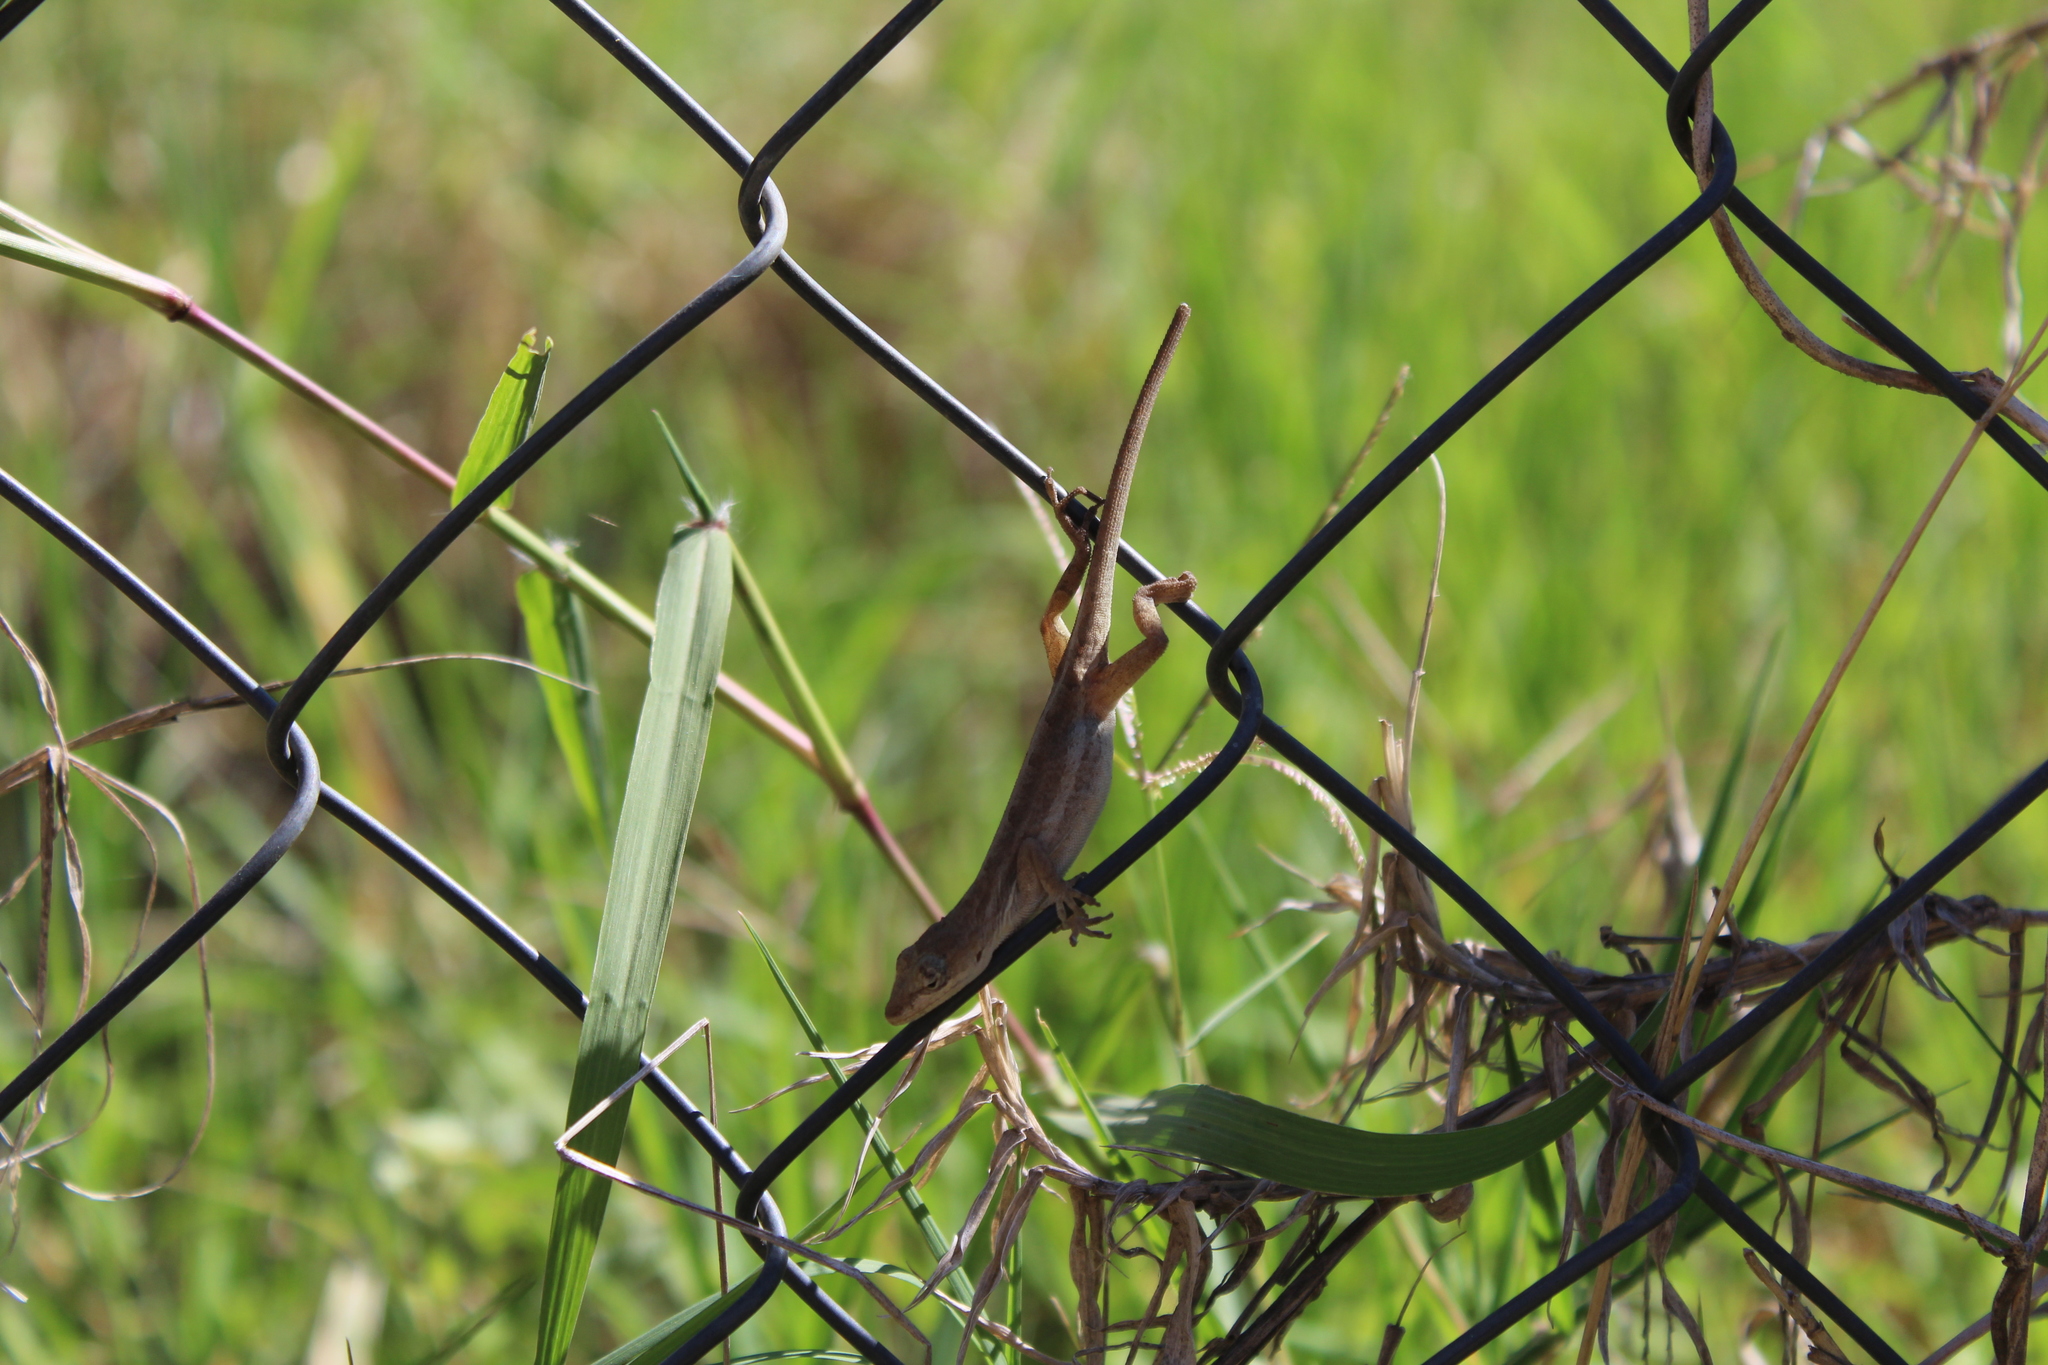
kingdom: Animalia
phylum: Chordata
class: Squamata
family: Dactyloidae
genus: Anolis
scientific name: Anolis quercorum
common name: Gray anole
